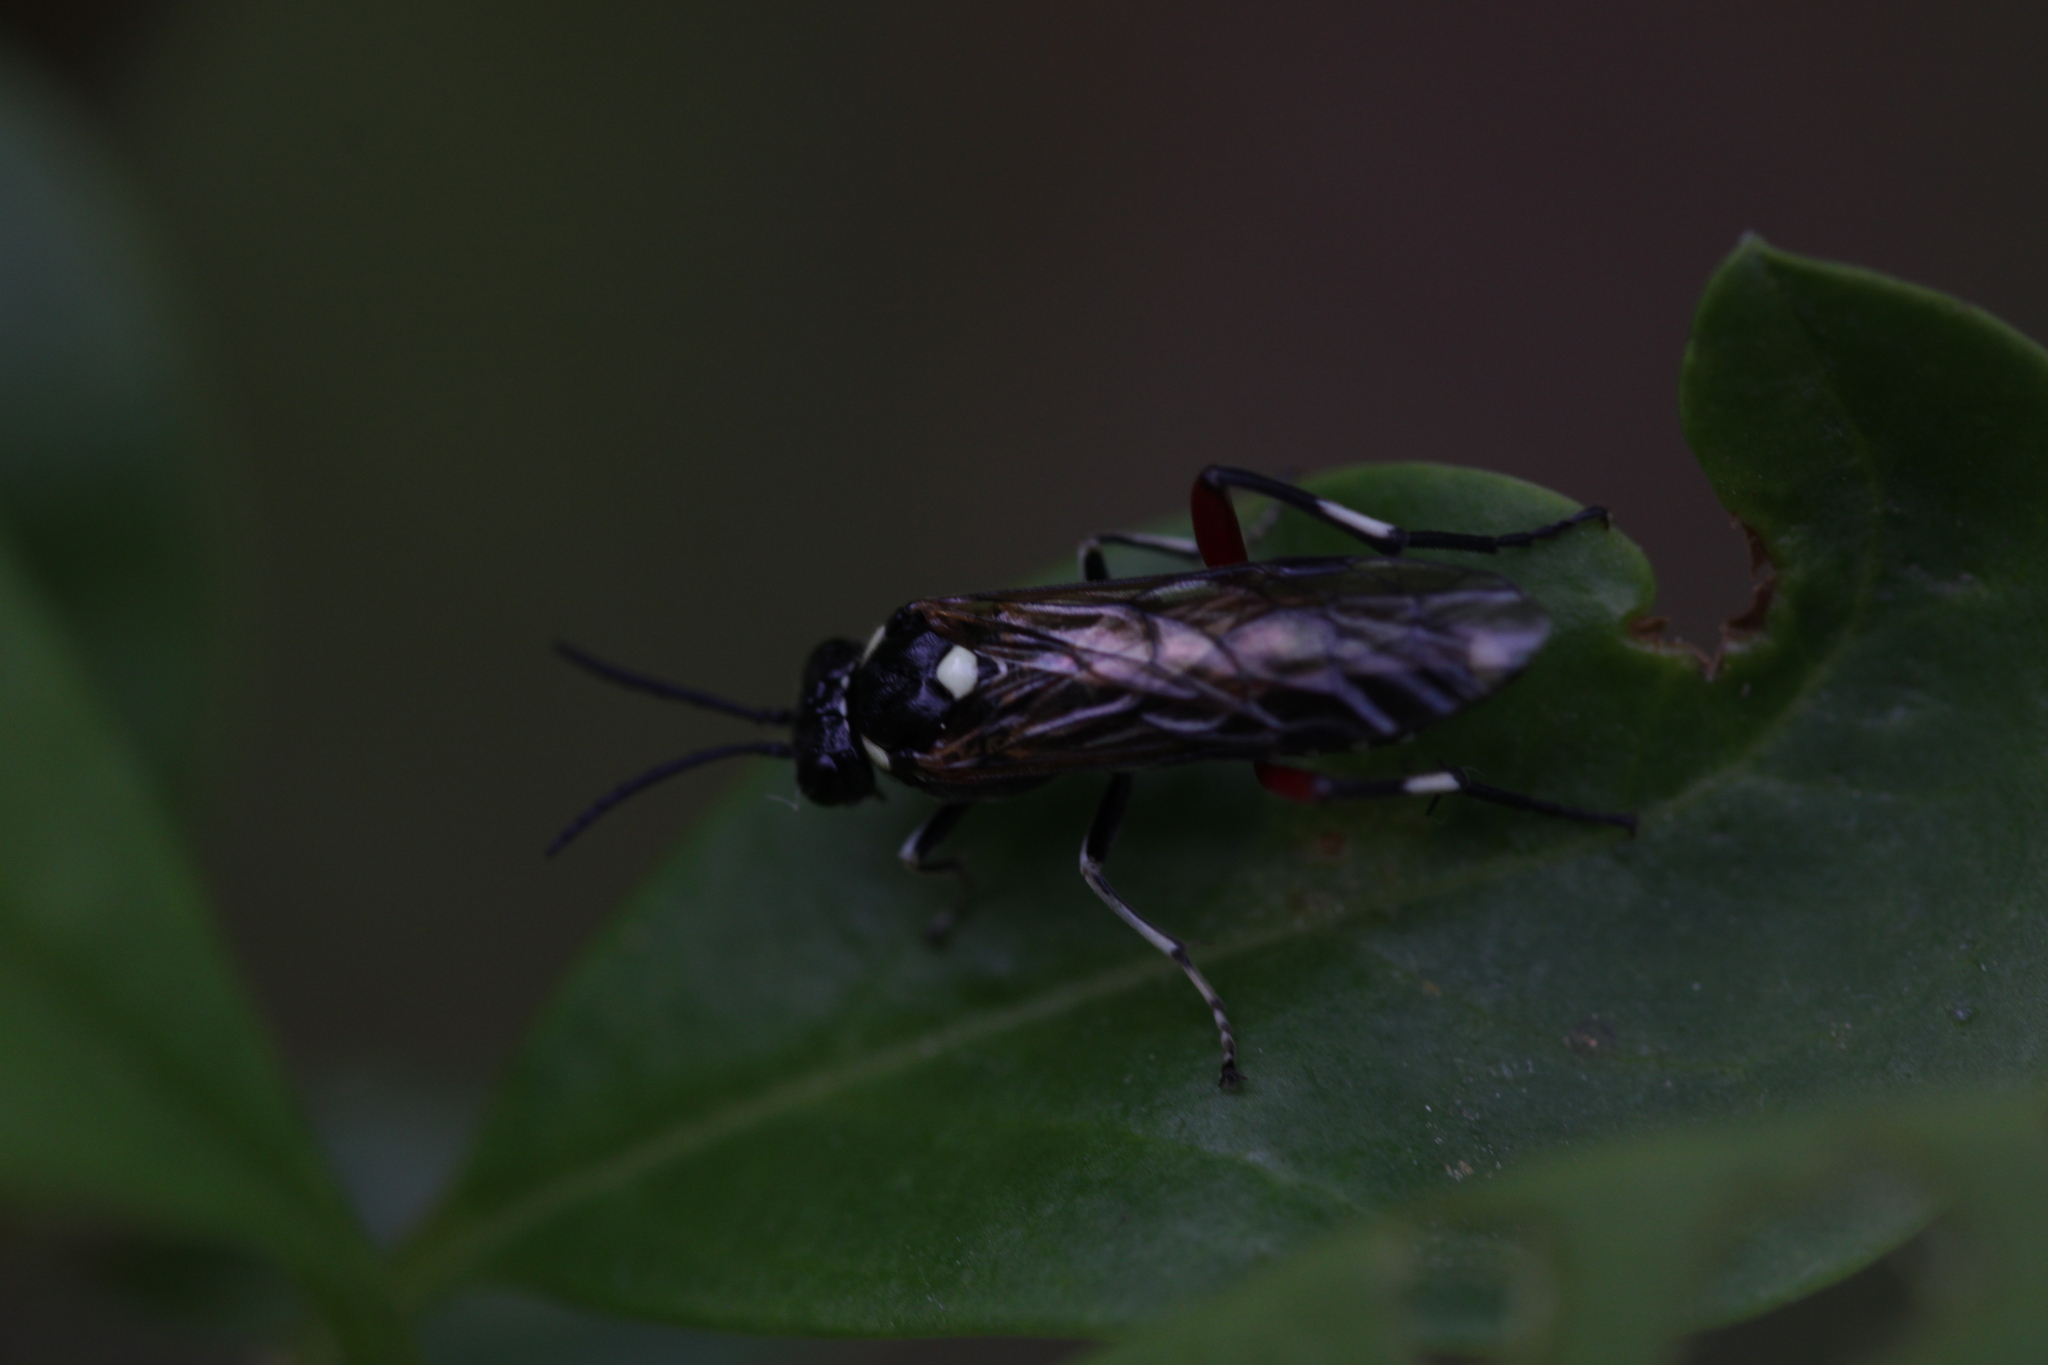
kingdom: Animalia
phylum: Arthropoda
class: Insecta
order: Hymenoptera
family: Tenthredinidae
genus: Macrophya
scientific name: Macrophya punctumalbum
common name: Sawfly
